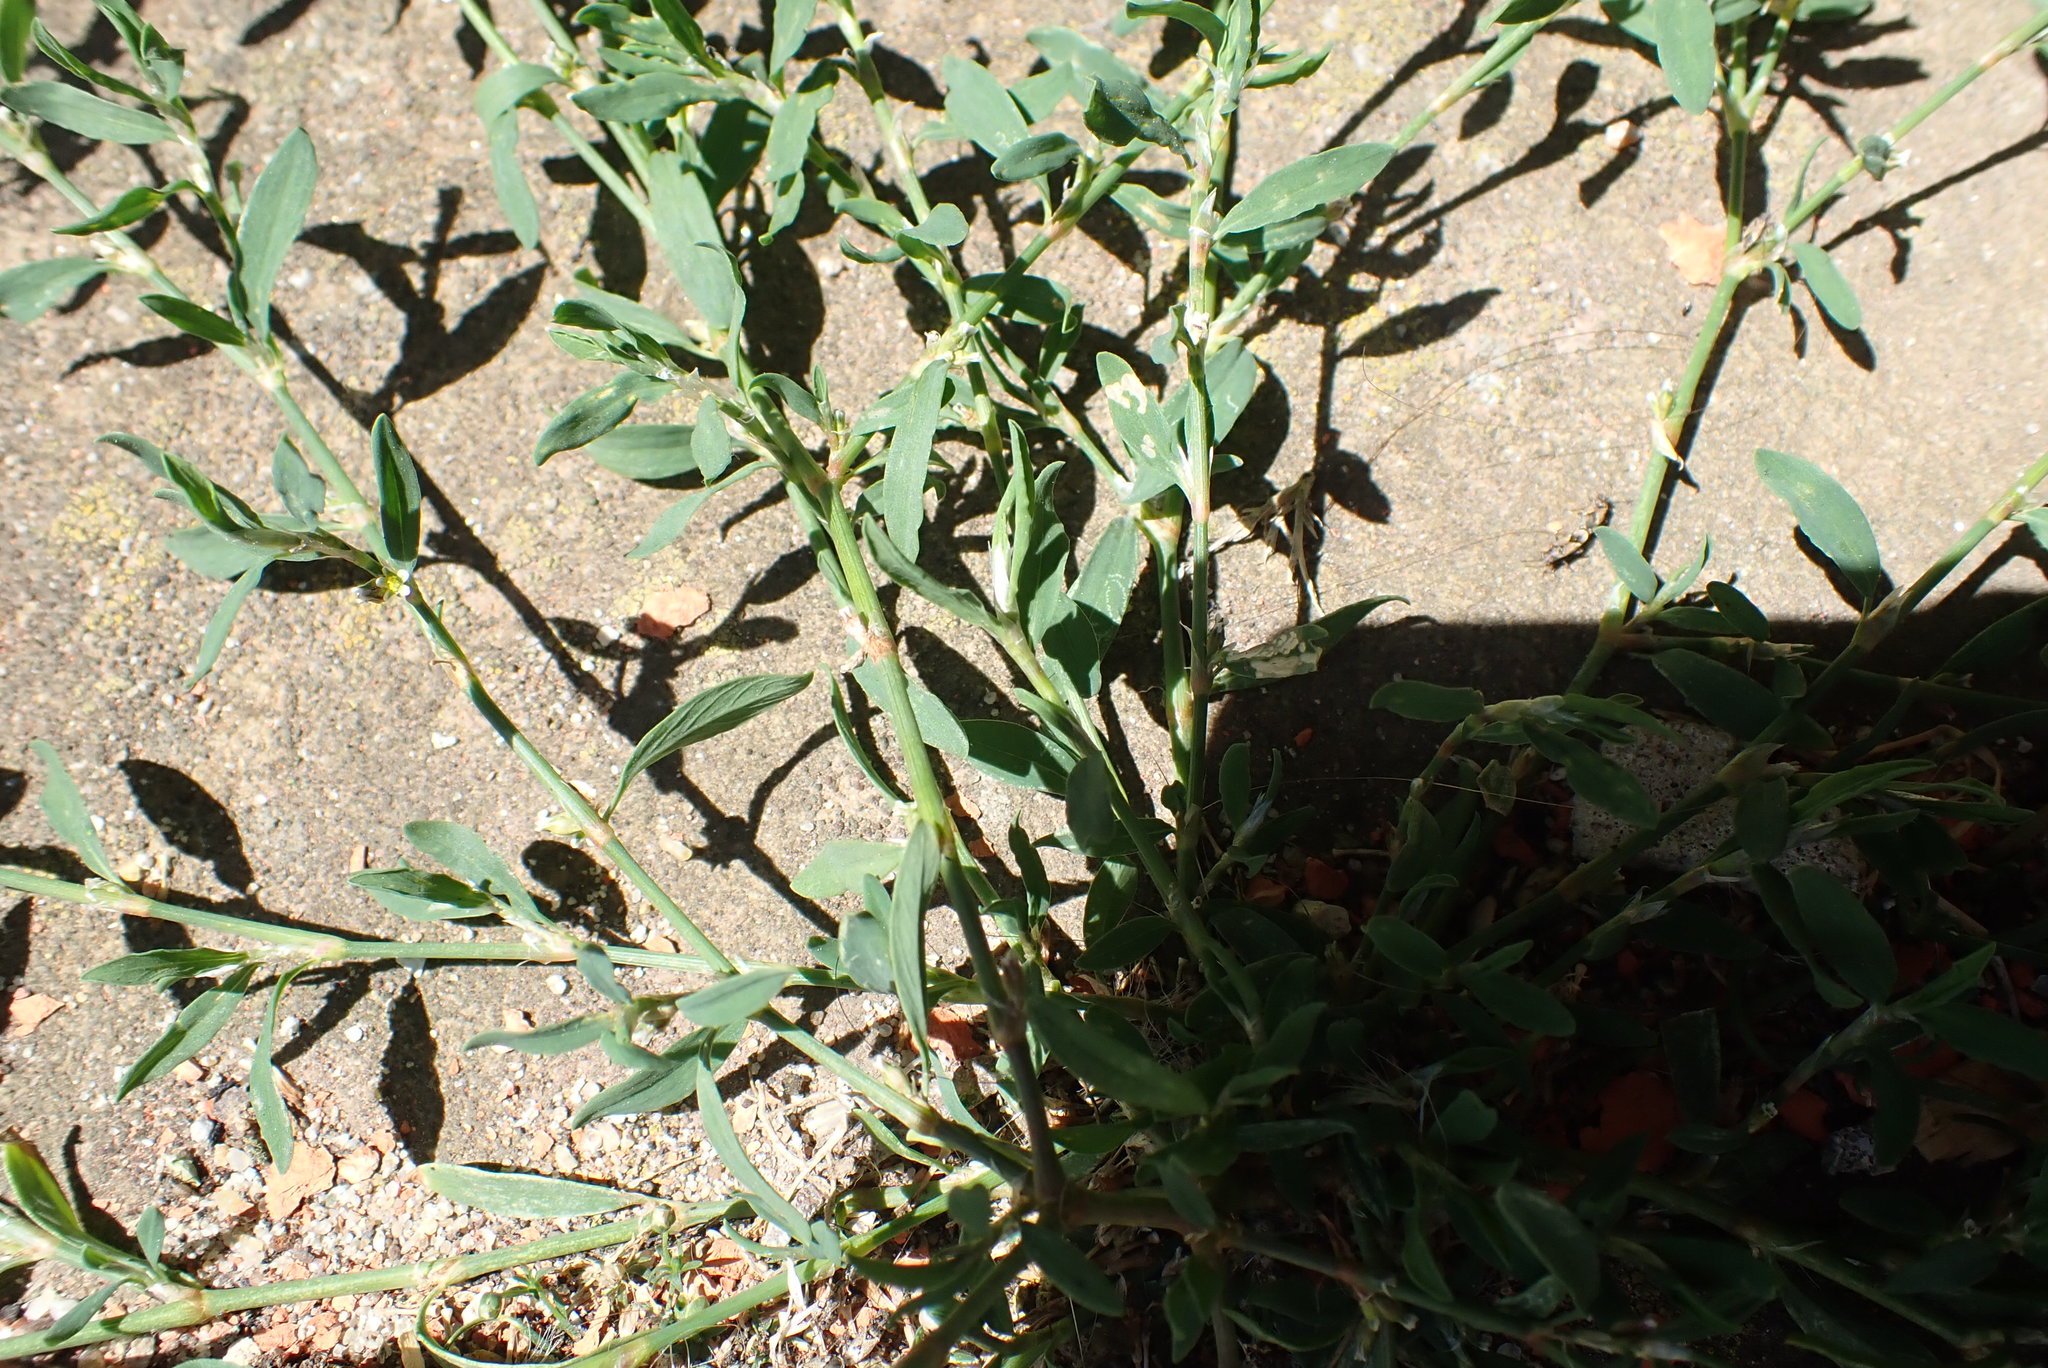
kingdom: Plantae
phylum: Tracheophyta
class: Magnoliopsida
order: Caryophyllales
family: Polygonaceae
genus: Polygonum
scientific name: Polygonum aviculare
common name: Prostrate knotweed
